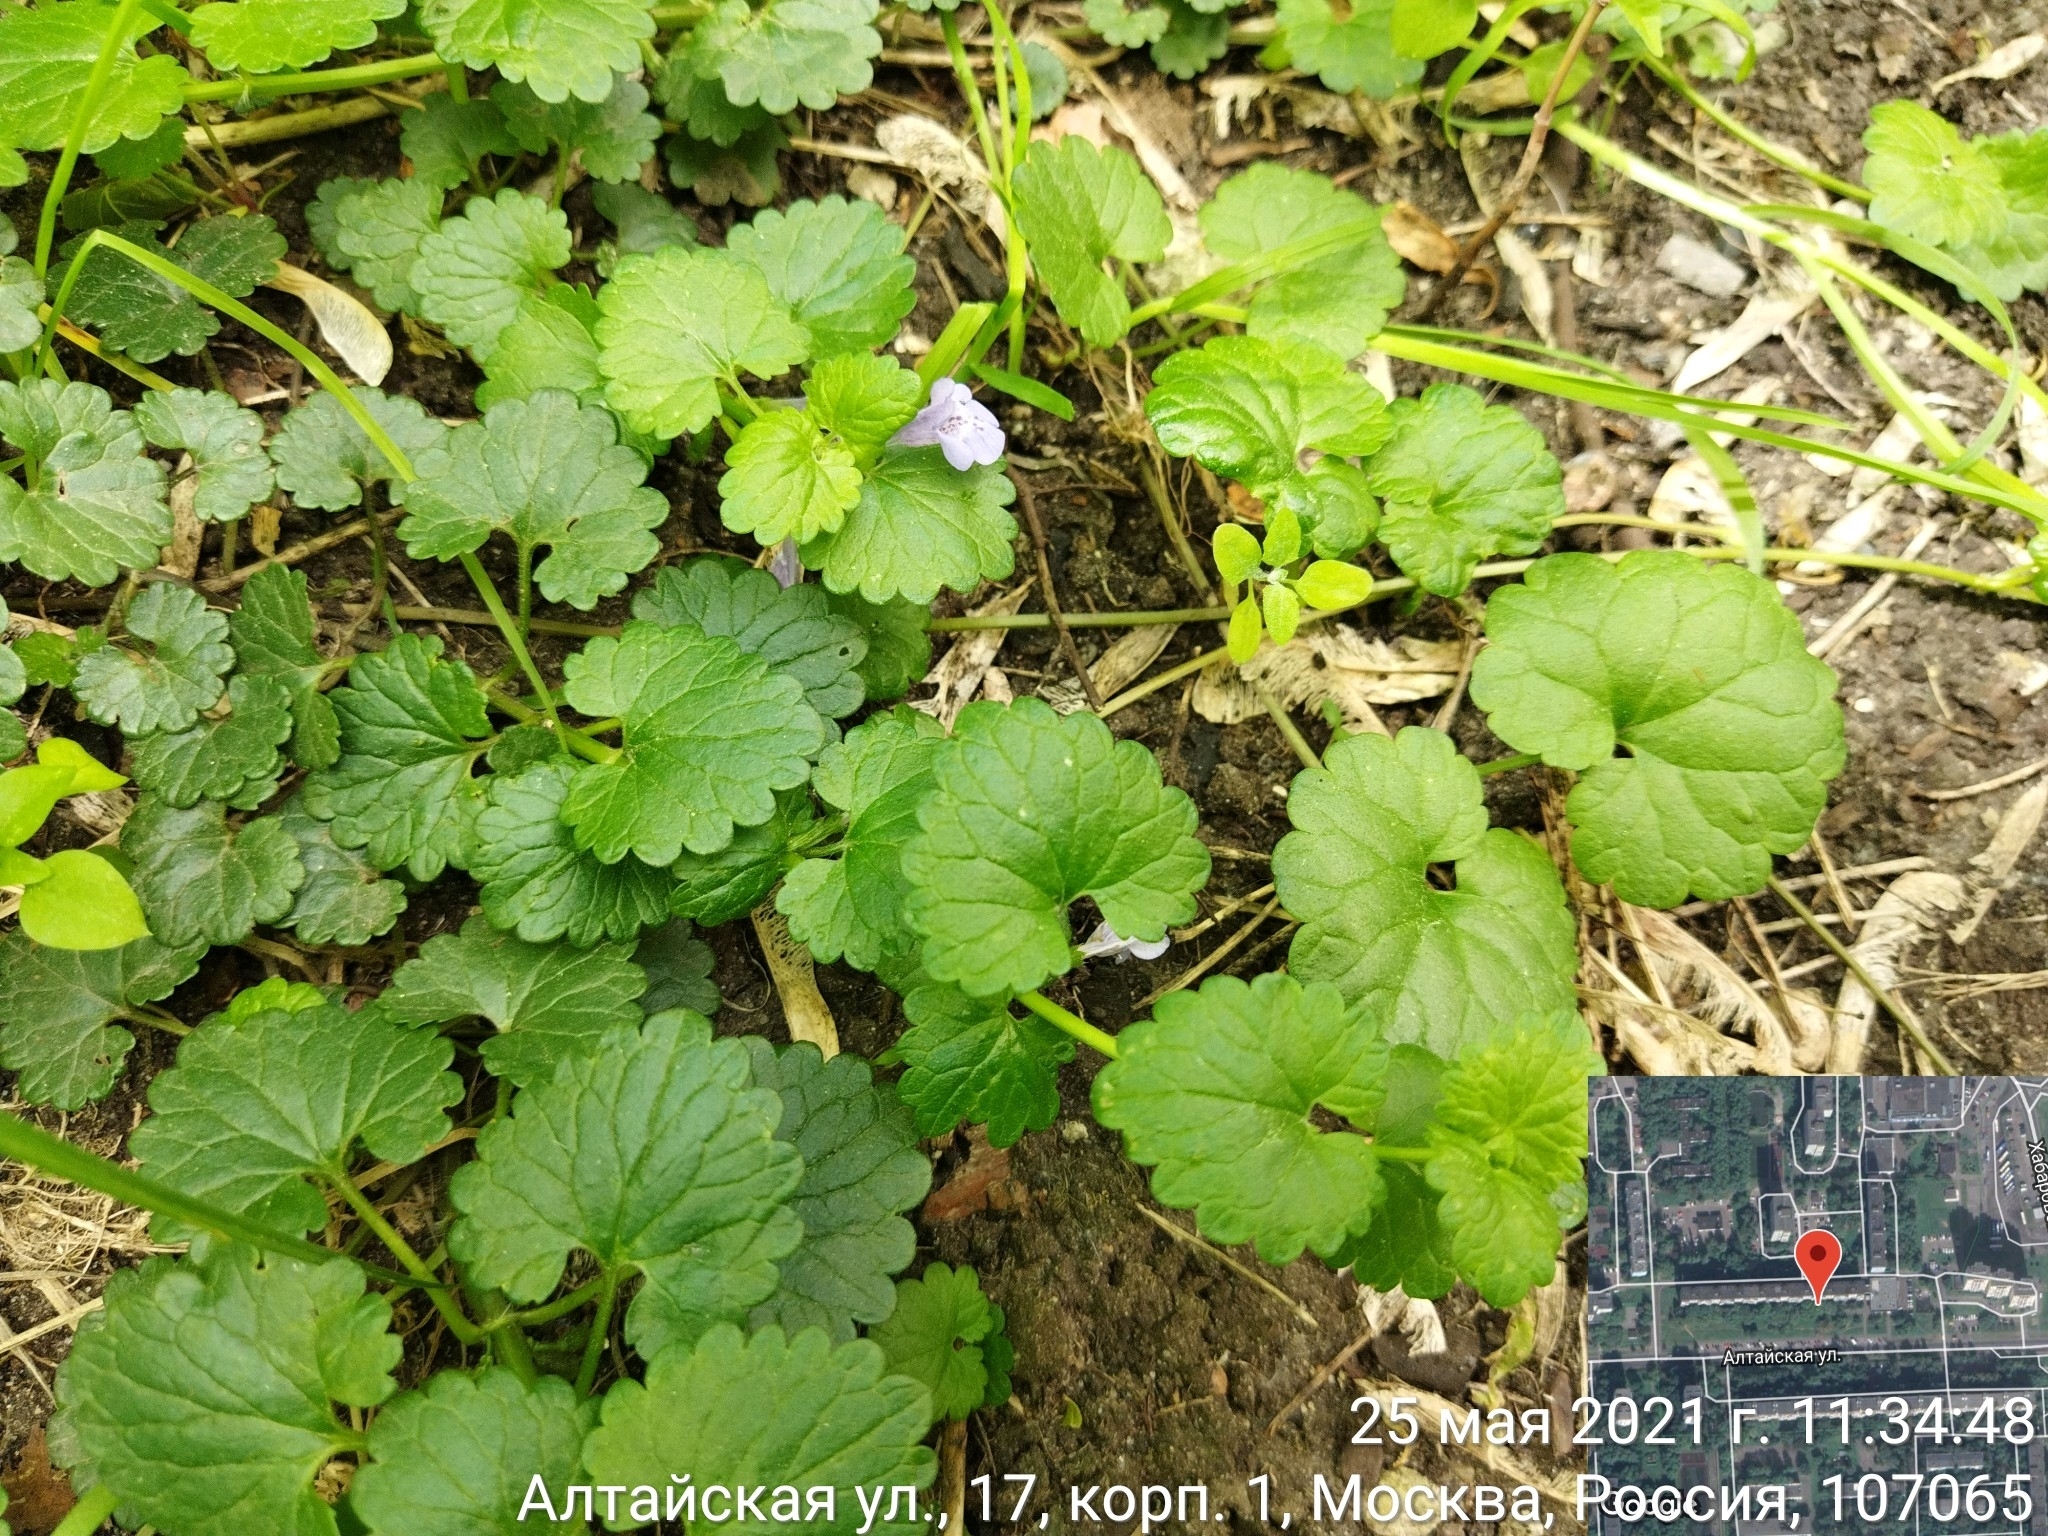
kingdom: Plantae
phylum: Tracheophyta
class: Magnoliopsida
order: Lamiales
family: Lamiaceae
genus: Glechoma
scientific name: Glechoma hederacea
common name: Ground ivy
